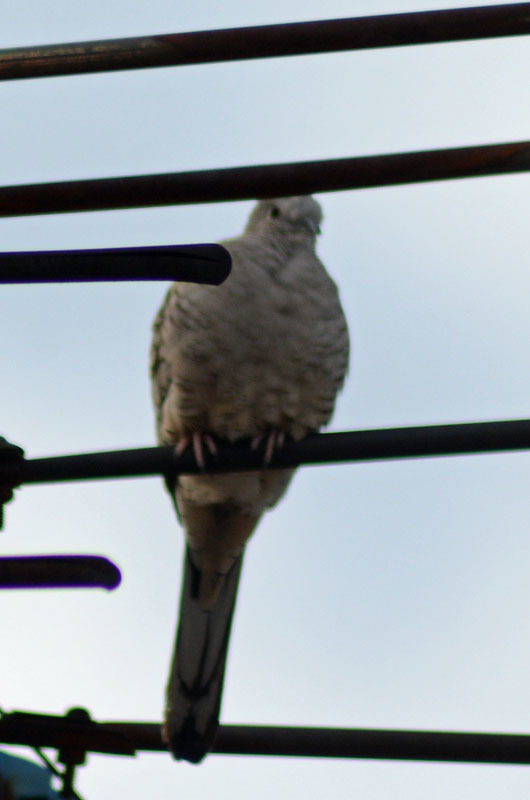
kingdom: Animalia
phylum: Chordata
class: Aves
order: Columbiformes
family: Columbidae
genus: Columbina
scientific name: Columbina inca
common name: Inca dove
